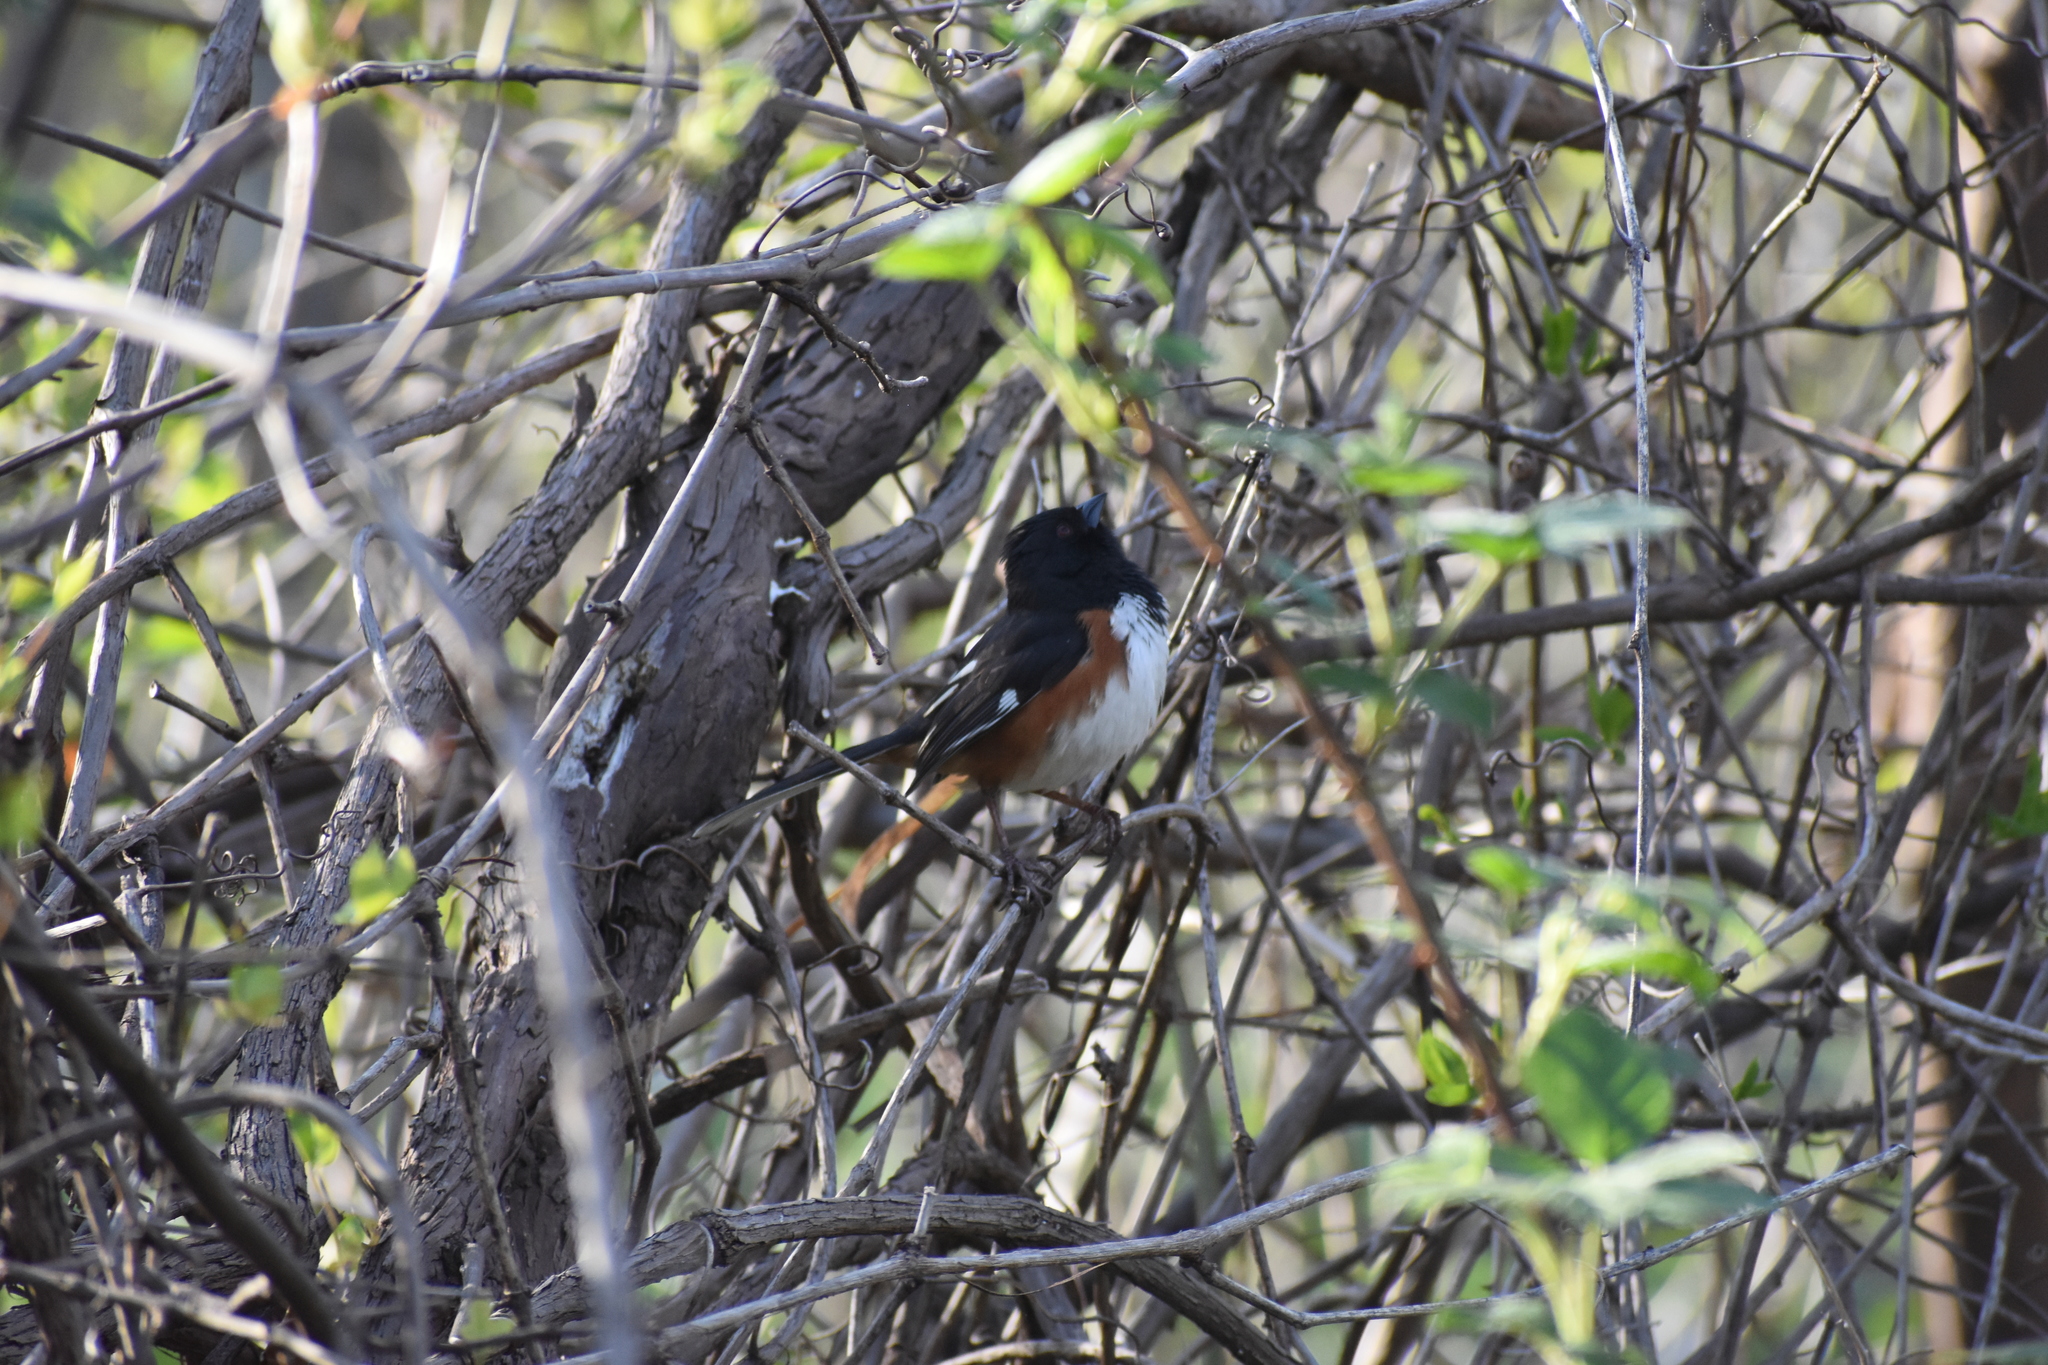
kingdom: Animalia
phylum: Chordata
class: Aves
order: Passeriformes
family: Passerellidae
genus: Pipilo
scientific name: Pipilo erythrophthalmus
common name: Eastern towhee
